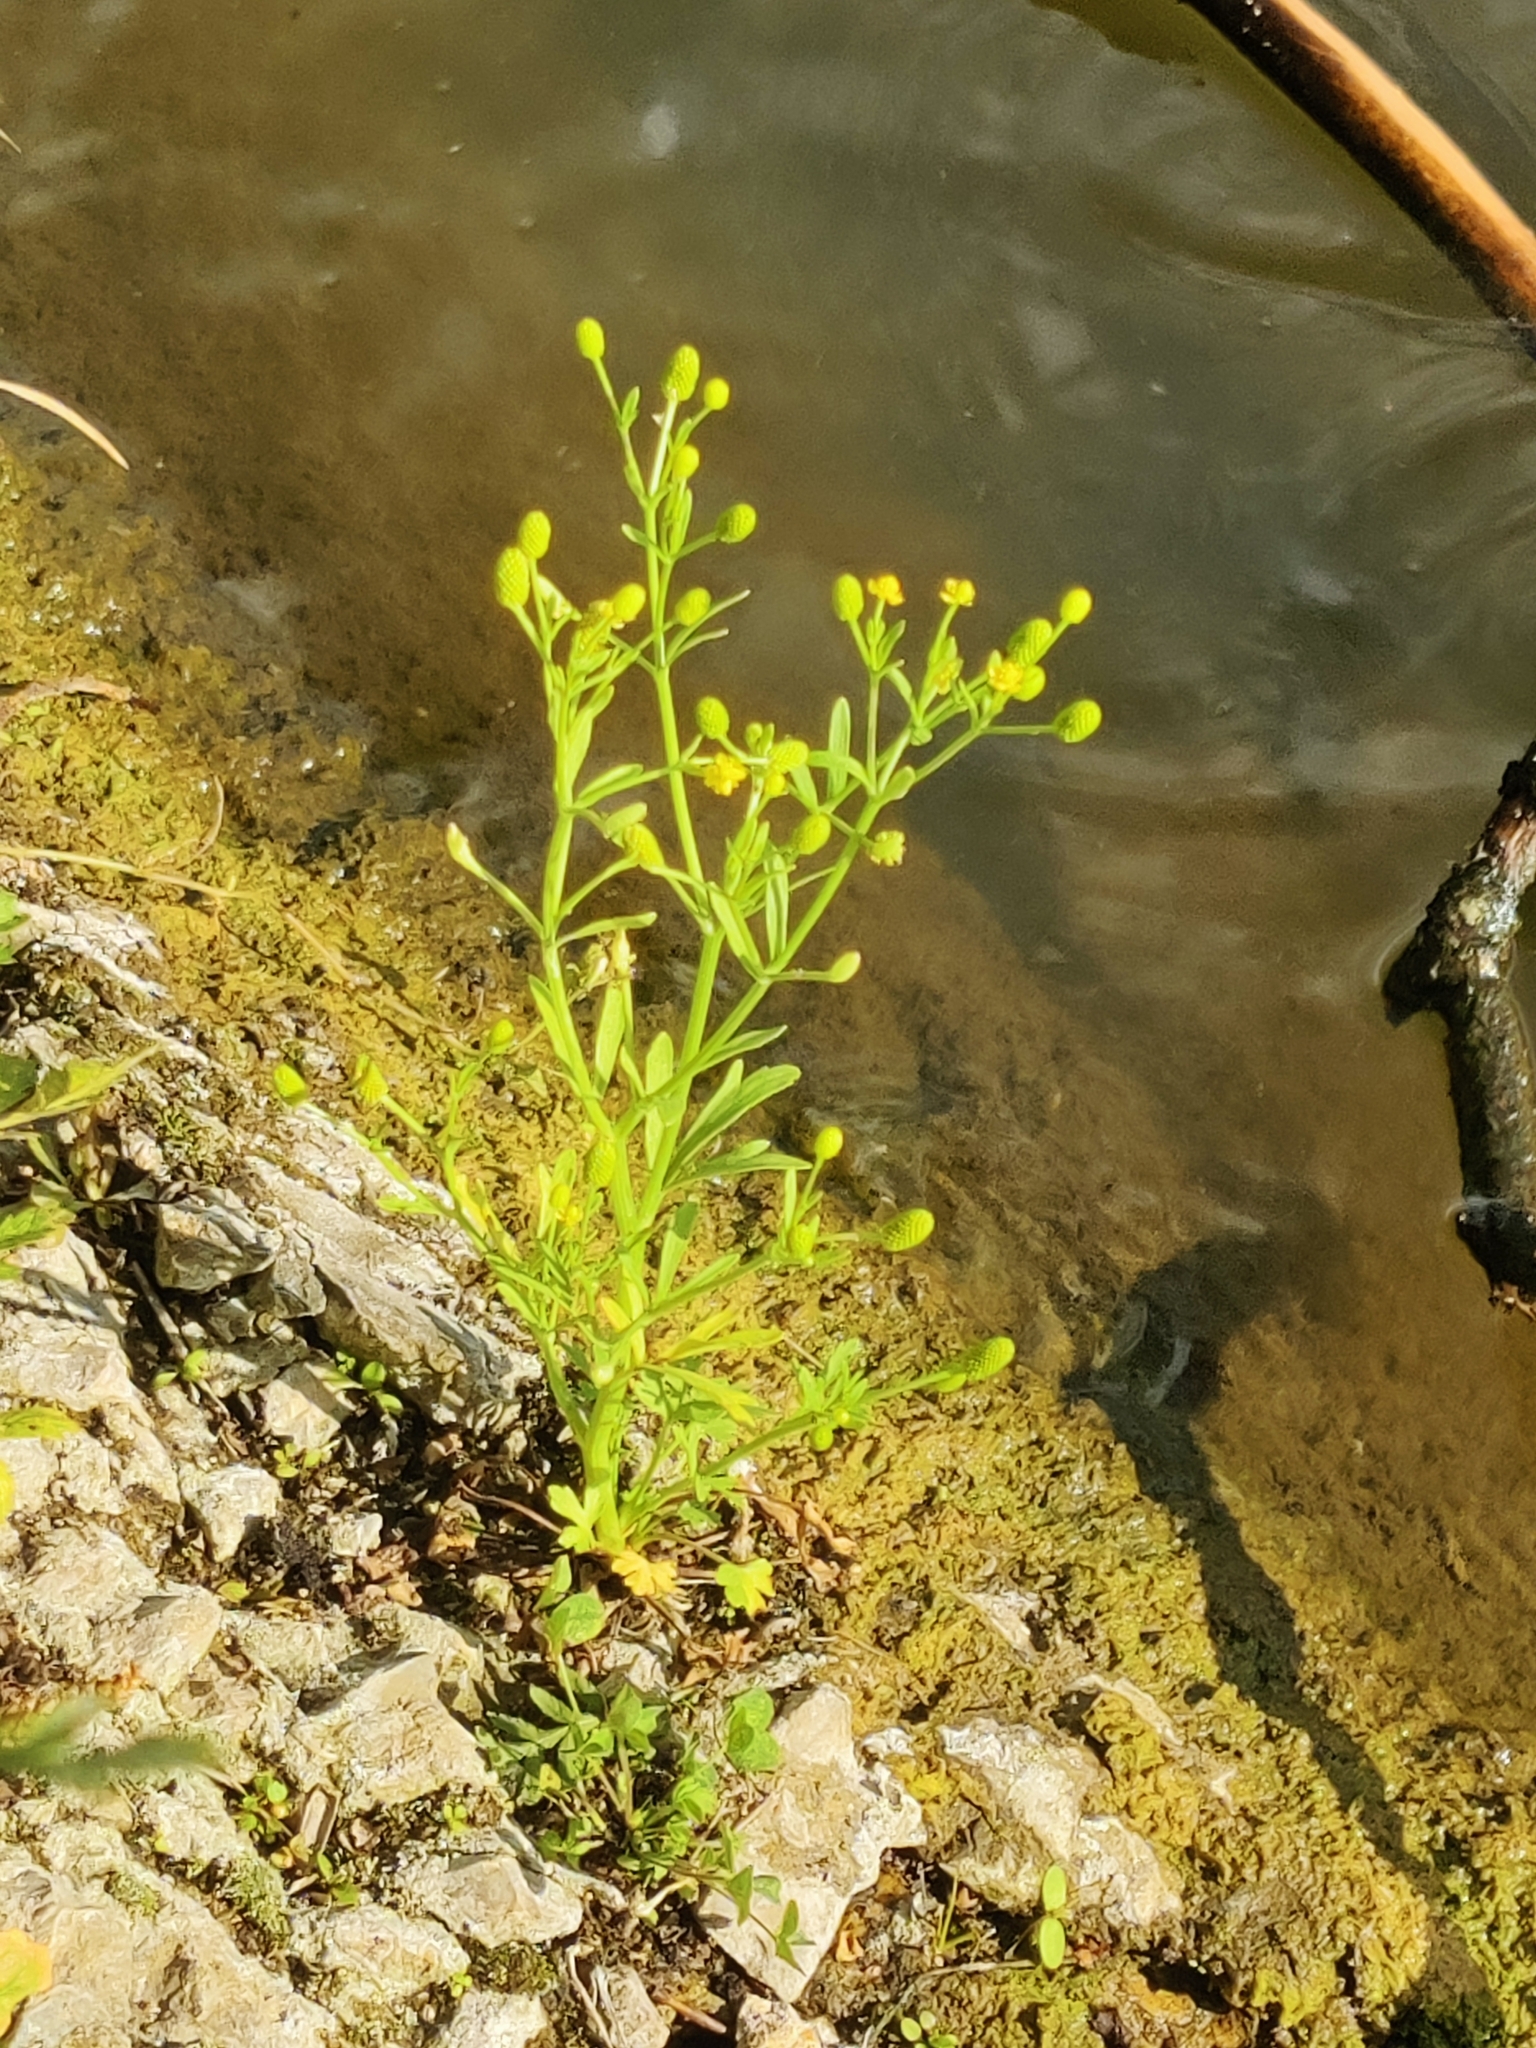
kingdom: Plantae
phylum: Tracheophyta
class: Magnoliopsida
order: Ranunculales
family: Ranunculaceae
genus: Ranunculus
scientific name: Ranunculus sceleratus
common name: Celery-leaved buttercup
